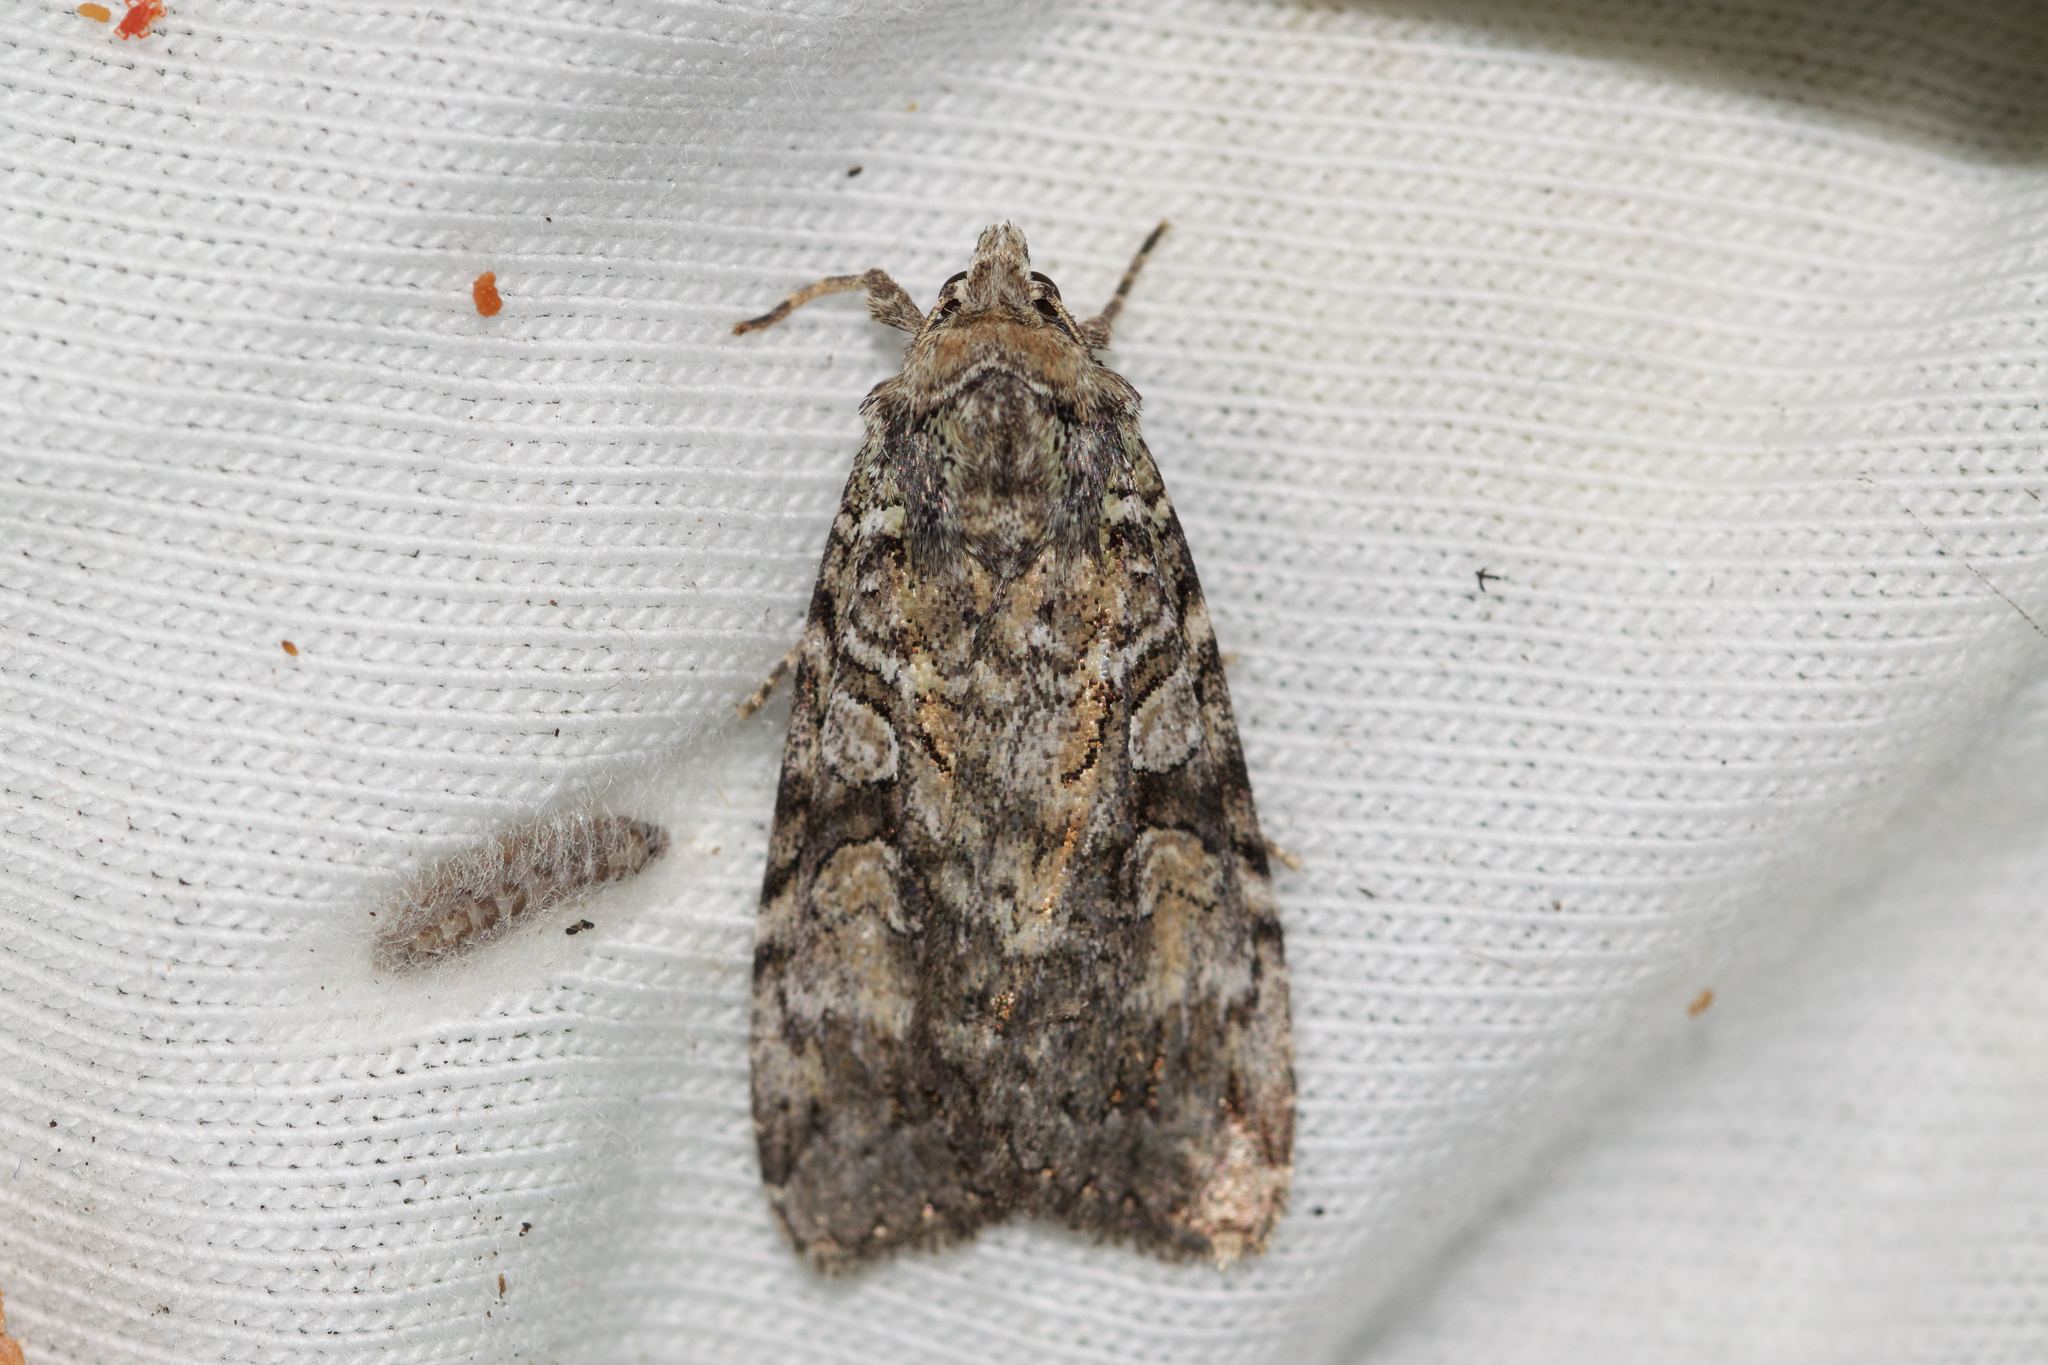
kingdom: Animalia
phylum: Arthropoda
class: Insecta
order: Lepidoptera
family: Noctuidae
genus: Anaplectoides
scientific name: Anaplectoides pressus
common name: Dappled dart
